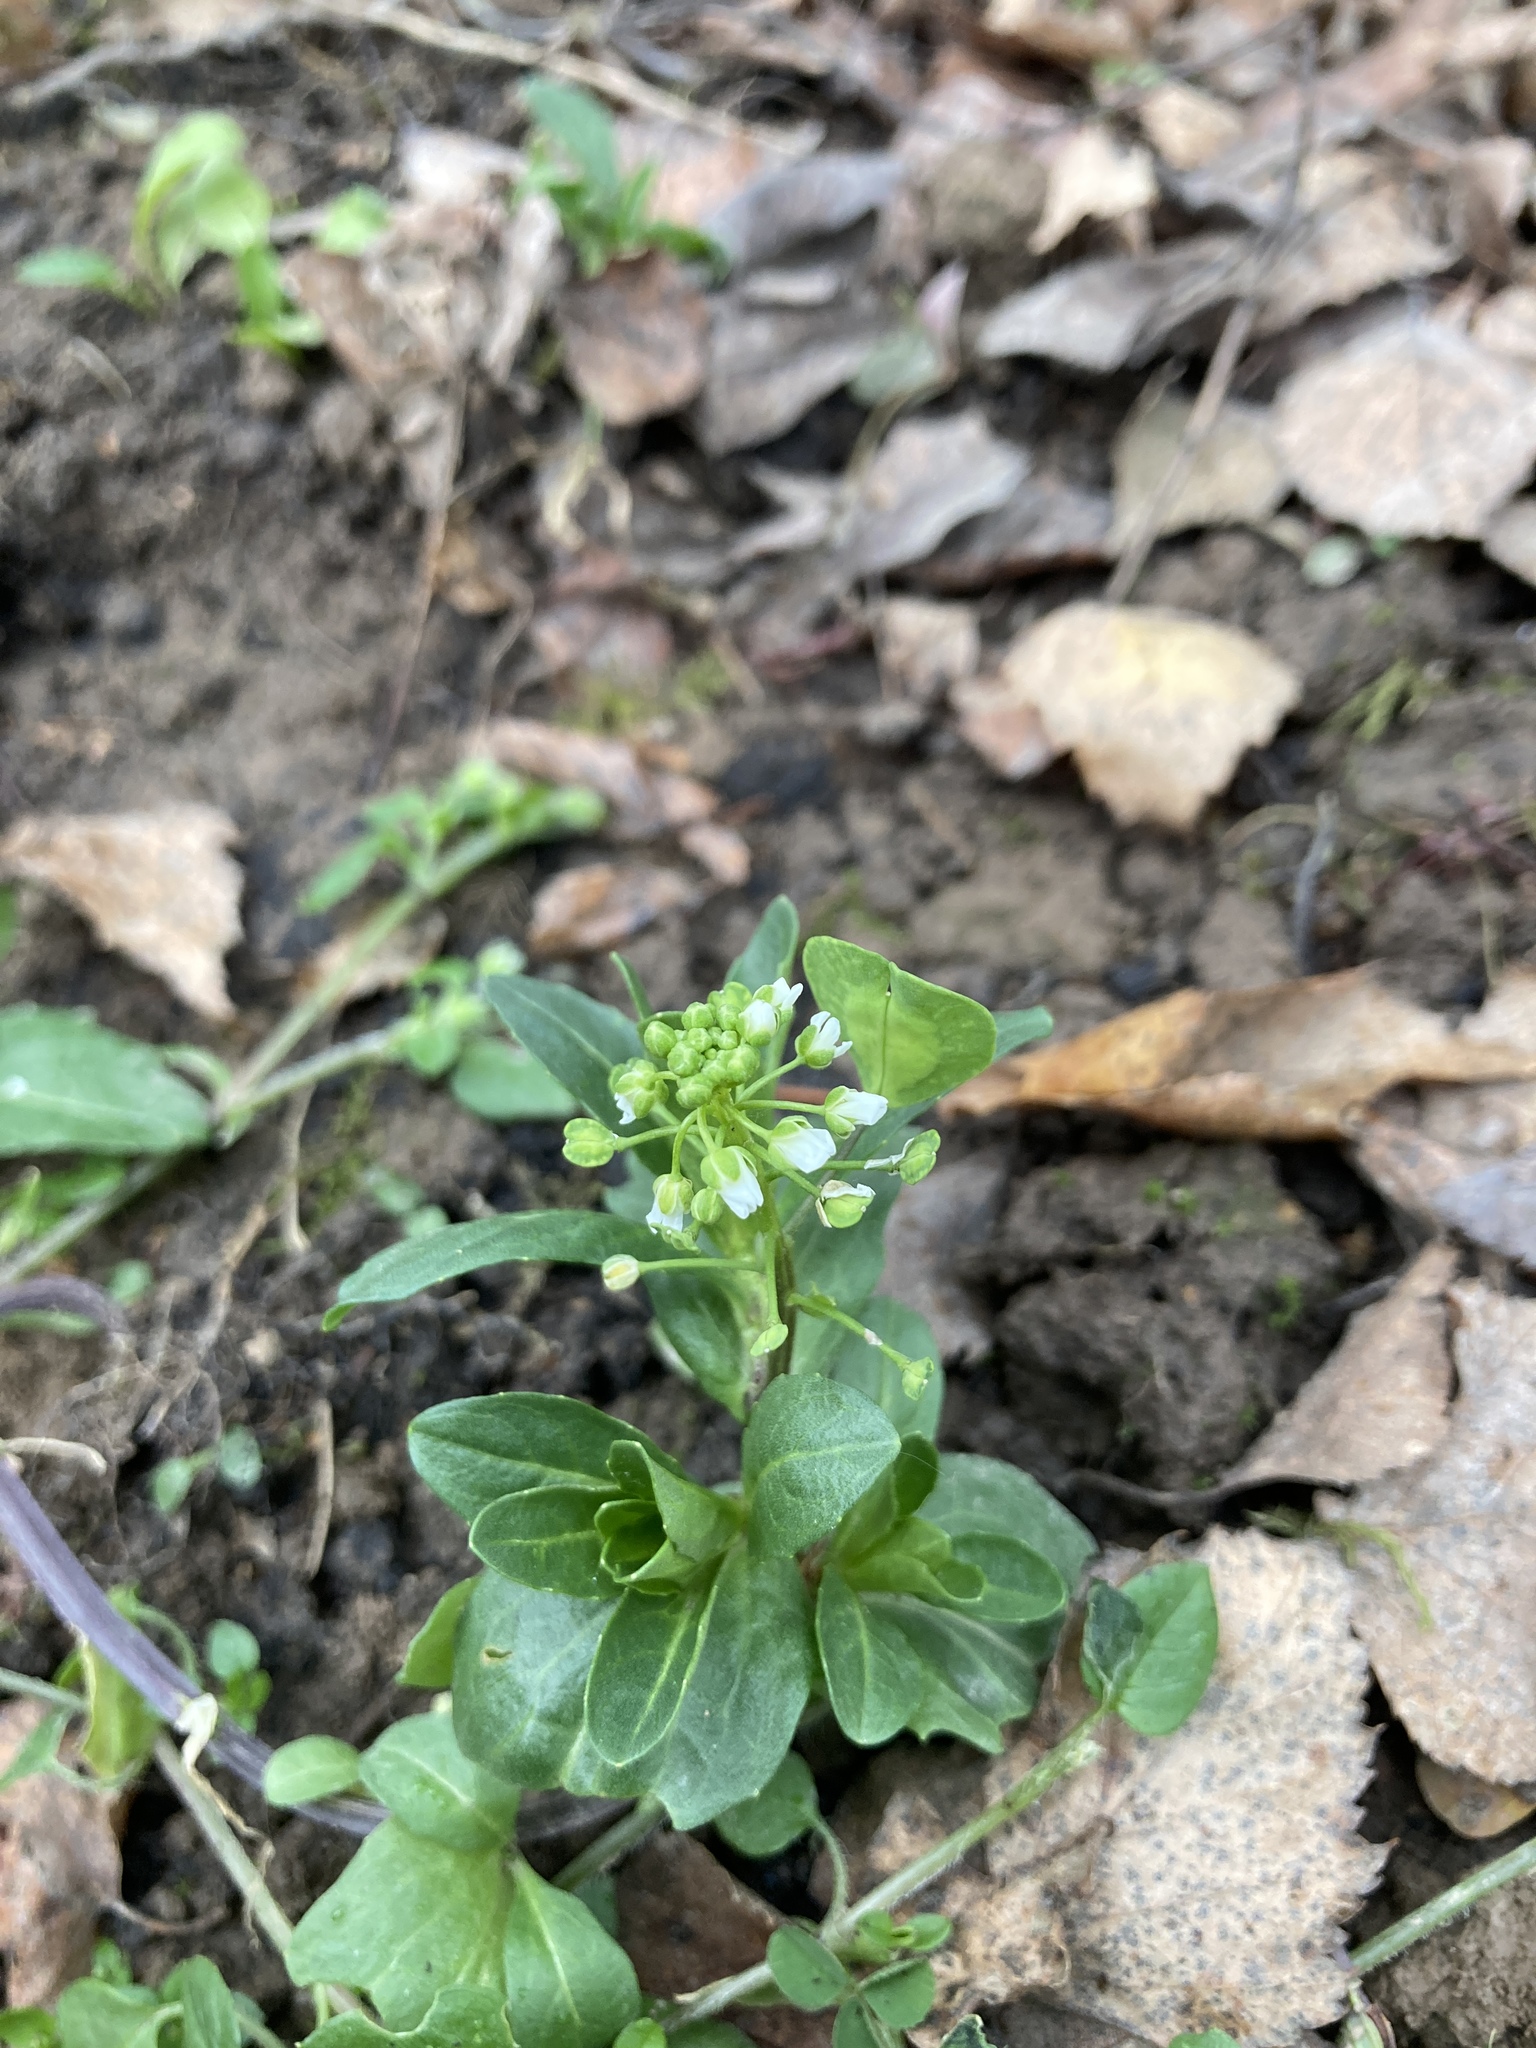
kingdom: Plantae
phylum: Tracheophyta
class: Magnoliopsida
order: Brassicales
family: Brassicaceae
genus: Thlaspi
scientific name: Thlaspi arvense
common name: Field pennycress
